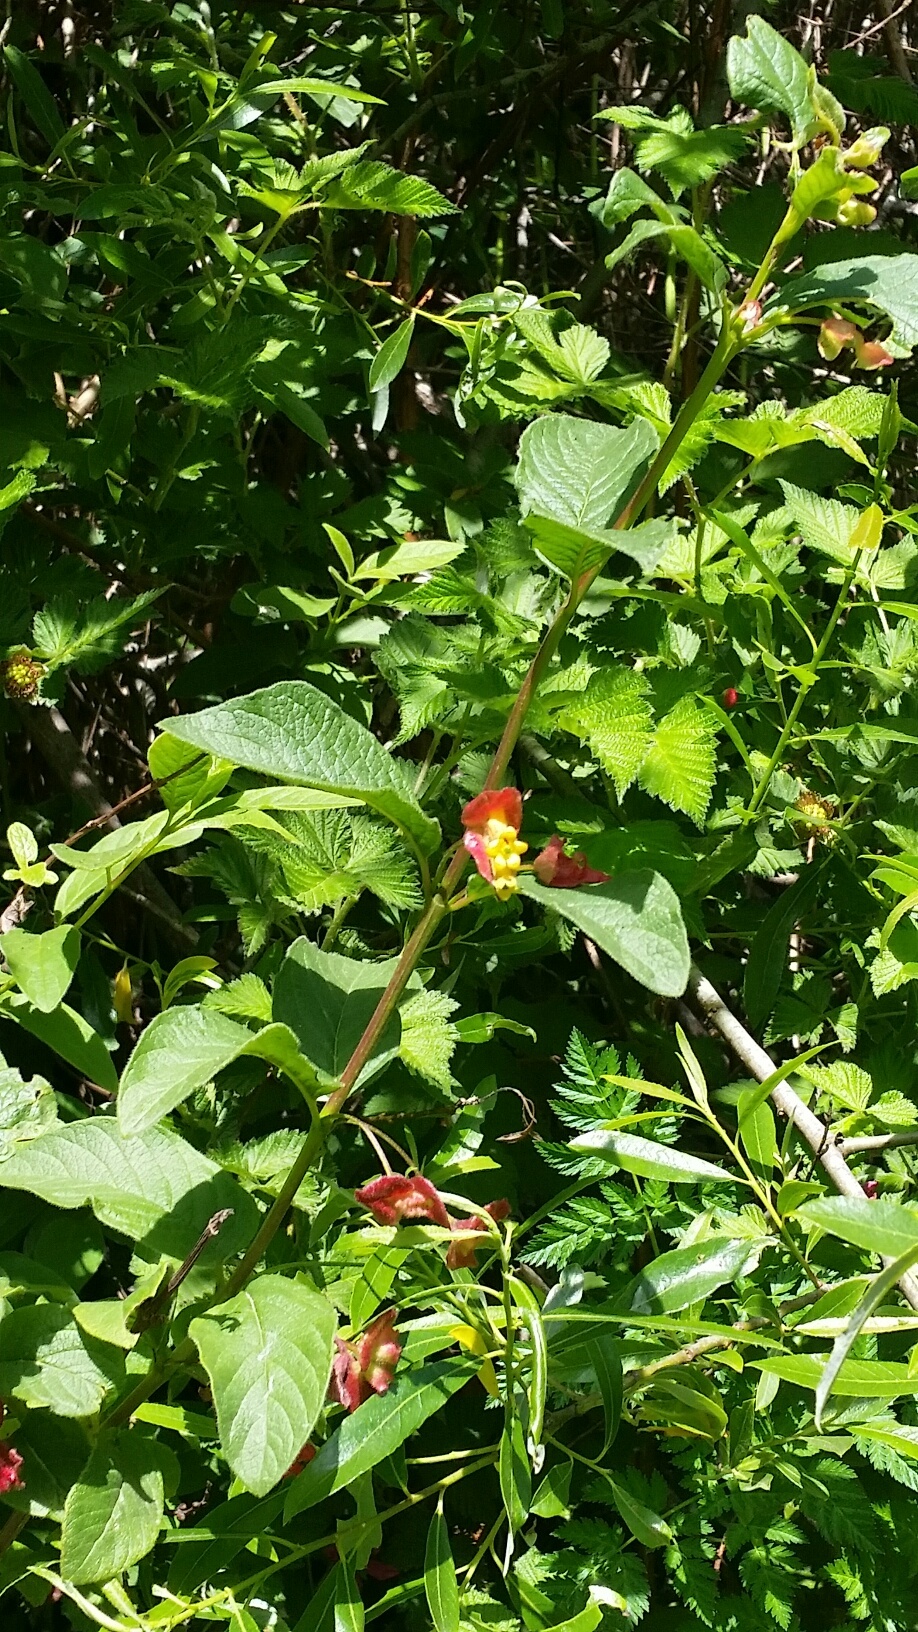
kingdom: Plantae
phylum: Tracheophyta
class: Magnoliopsida
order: Dipsacales
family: Caprifoliaceae
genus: Lonicera
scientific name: Lonicera involucrata
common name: Californian honeysuckle
